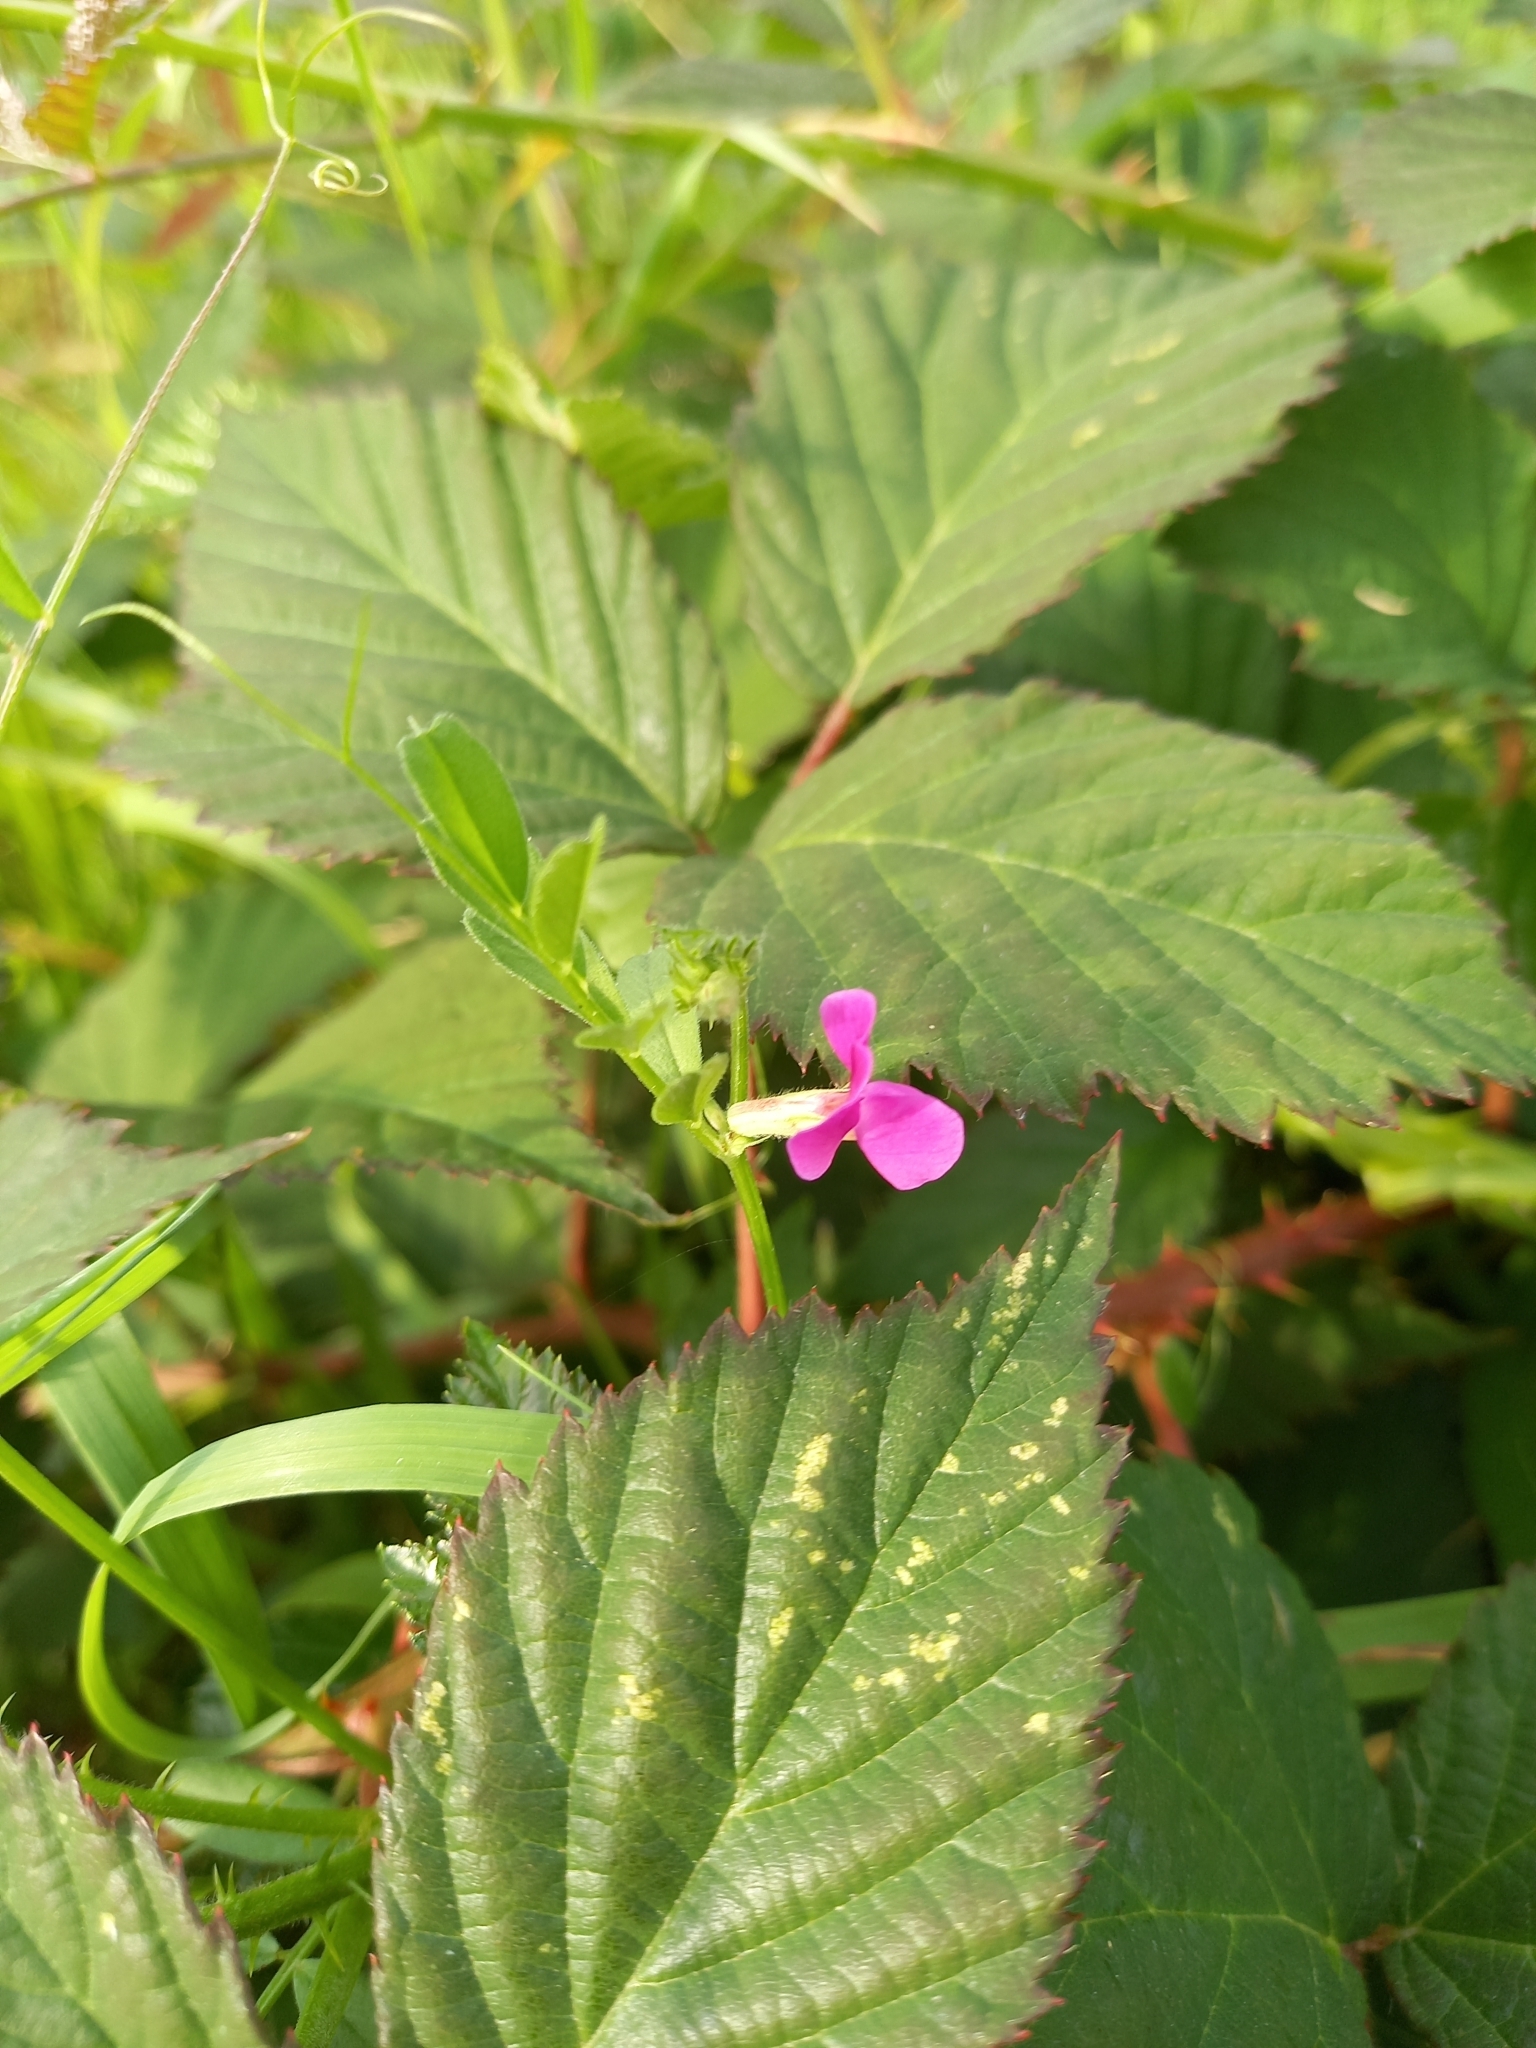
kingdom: Plantae
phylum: Tracheophyta
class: Magnoliopsida
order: Fabales
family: Fabaceae
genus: Vicia
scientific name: Vicia sativa
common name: Garden vetch
